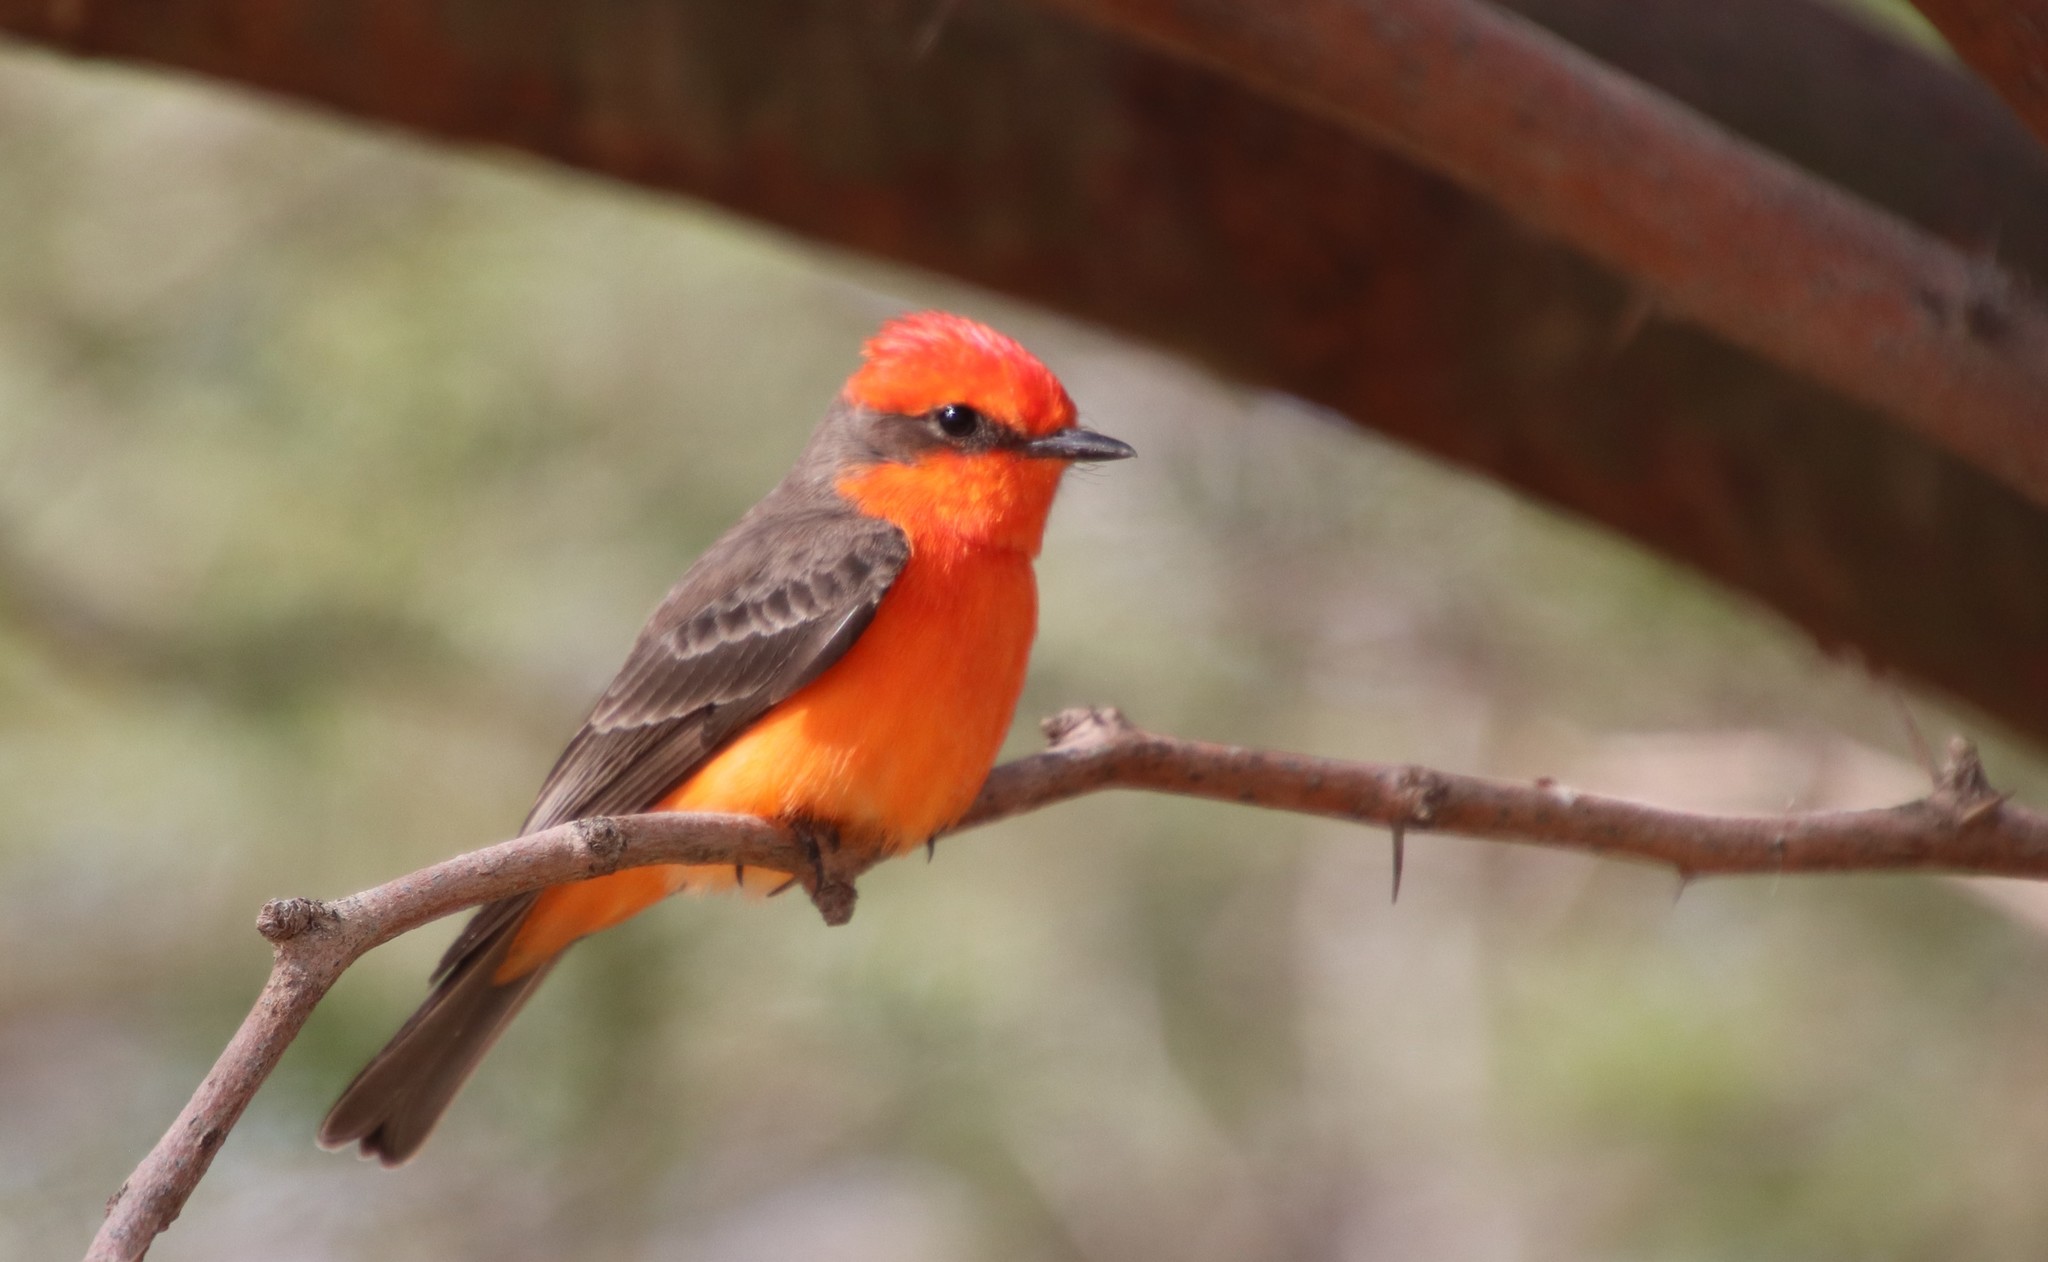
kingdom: Animalia
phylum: Chordata
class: Aves
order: Passeriformes
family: Tyrannidae
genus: Pyrocephalus
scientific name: Pyrocephalus rubinus
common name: Vermilion flycatcher
